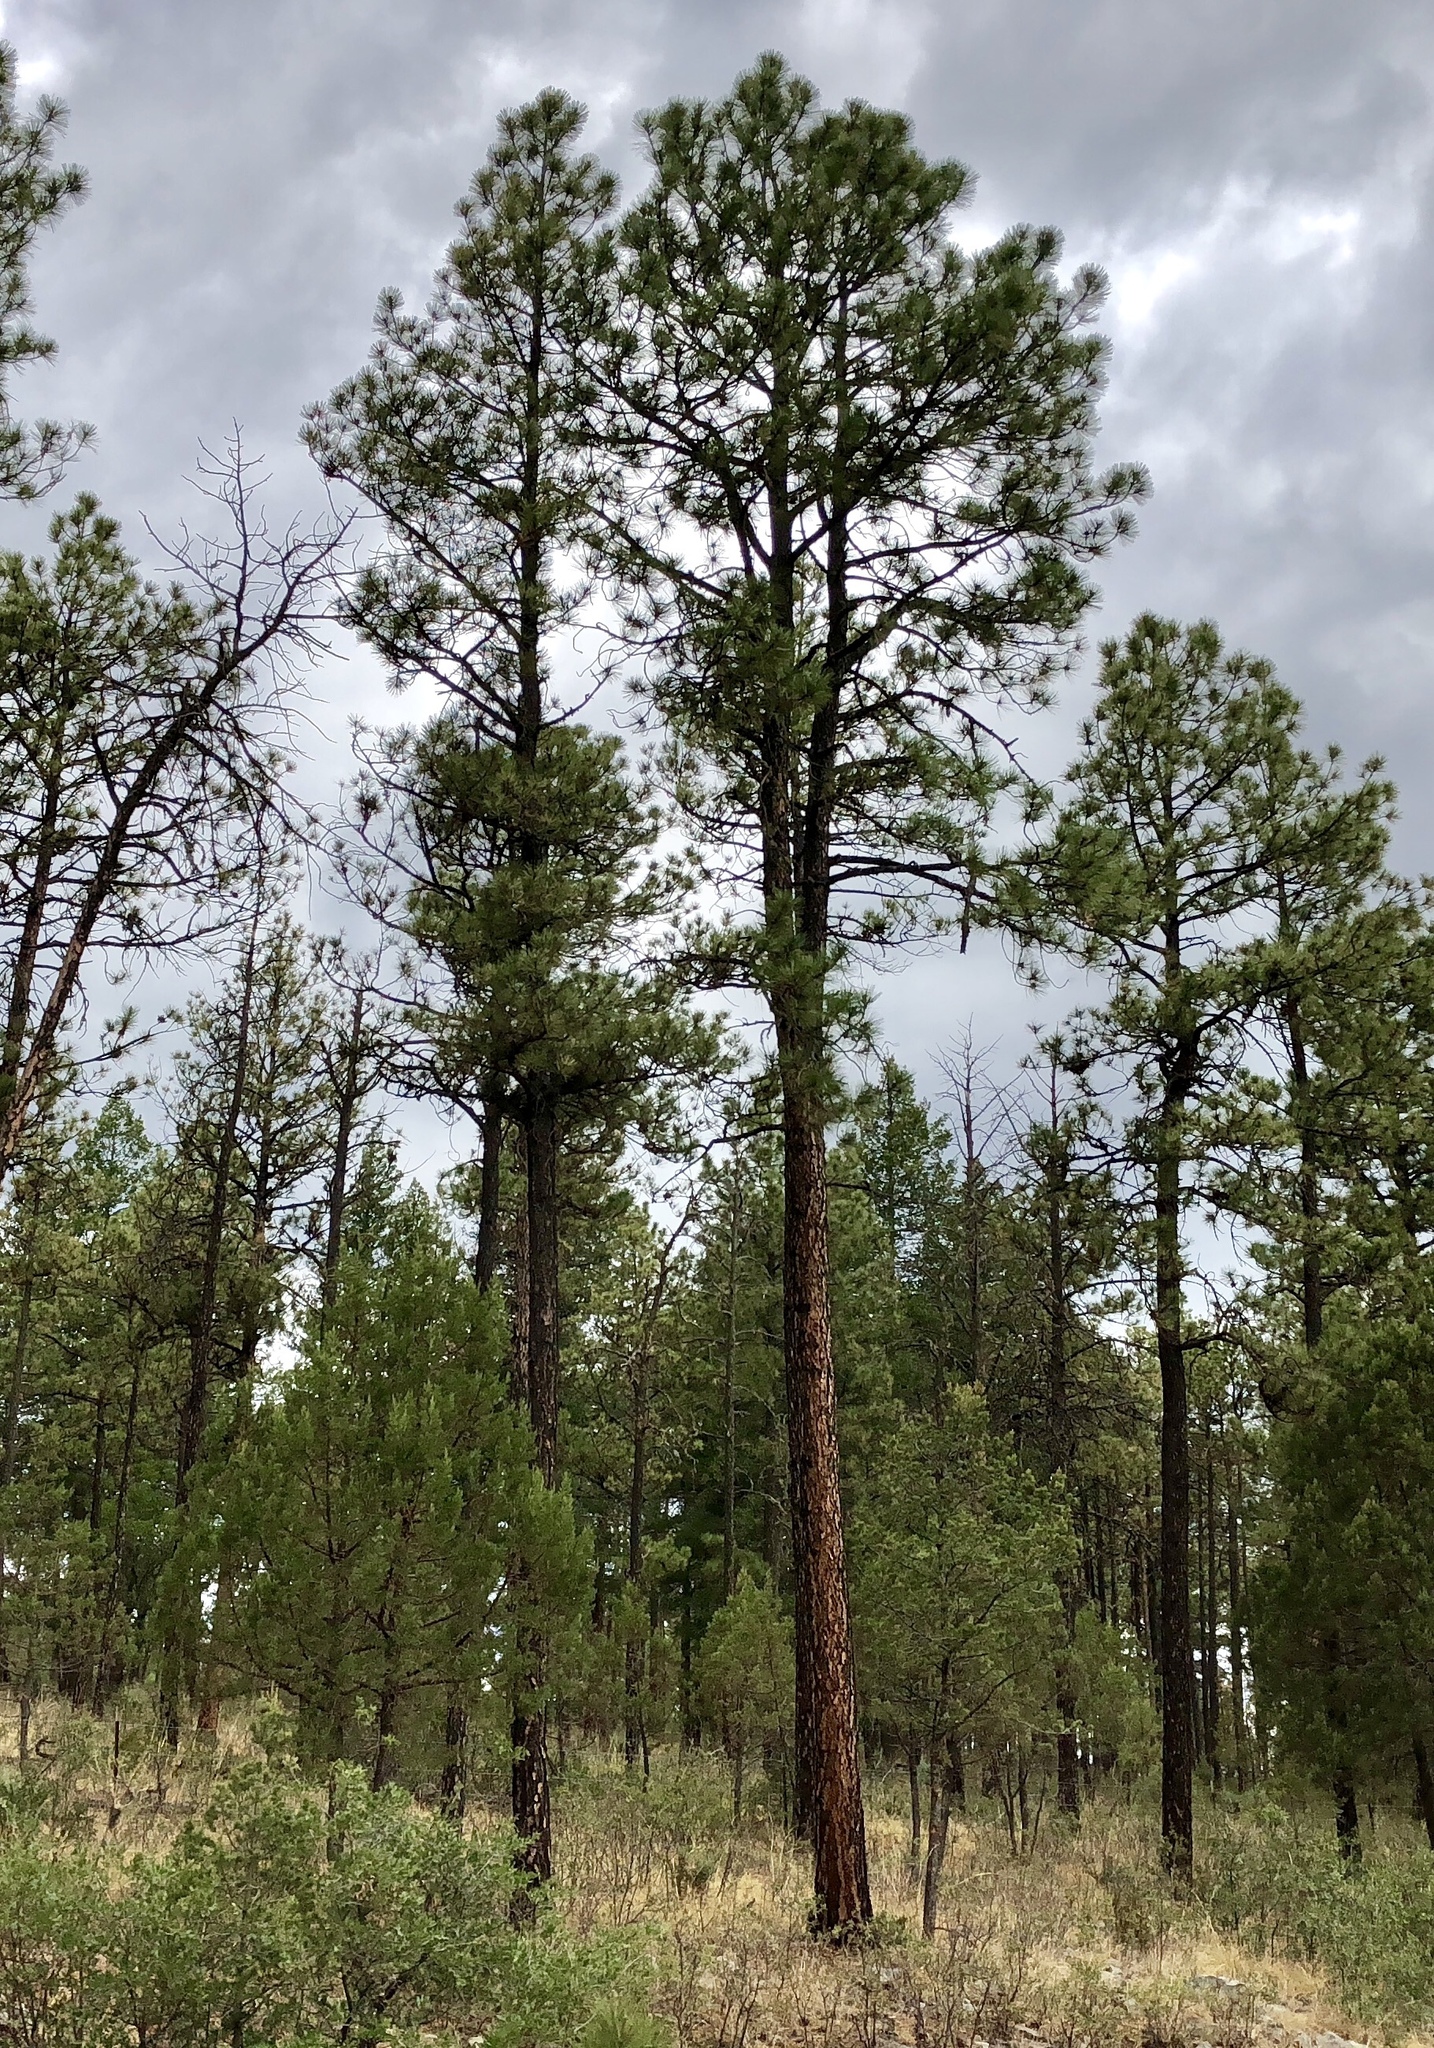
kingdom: Plantae
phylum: Tracheophyta
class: Pinopsida
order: Pinales
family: Pinaceae
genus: Pinus
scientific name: Pinus ponderosa
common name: Western yellow-pine
